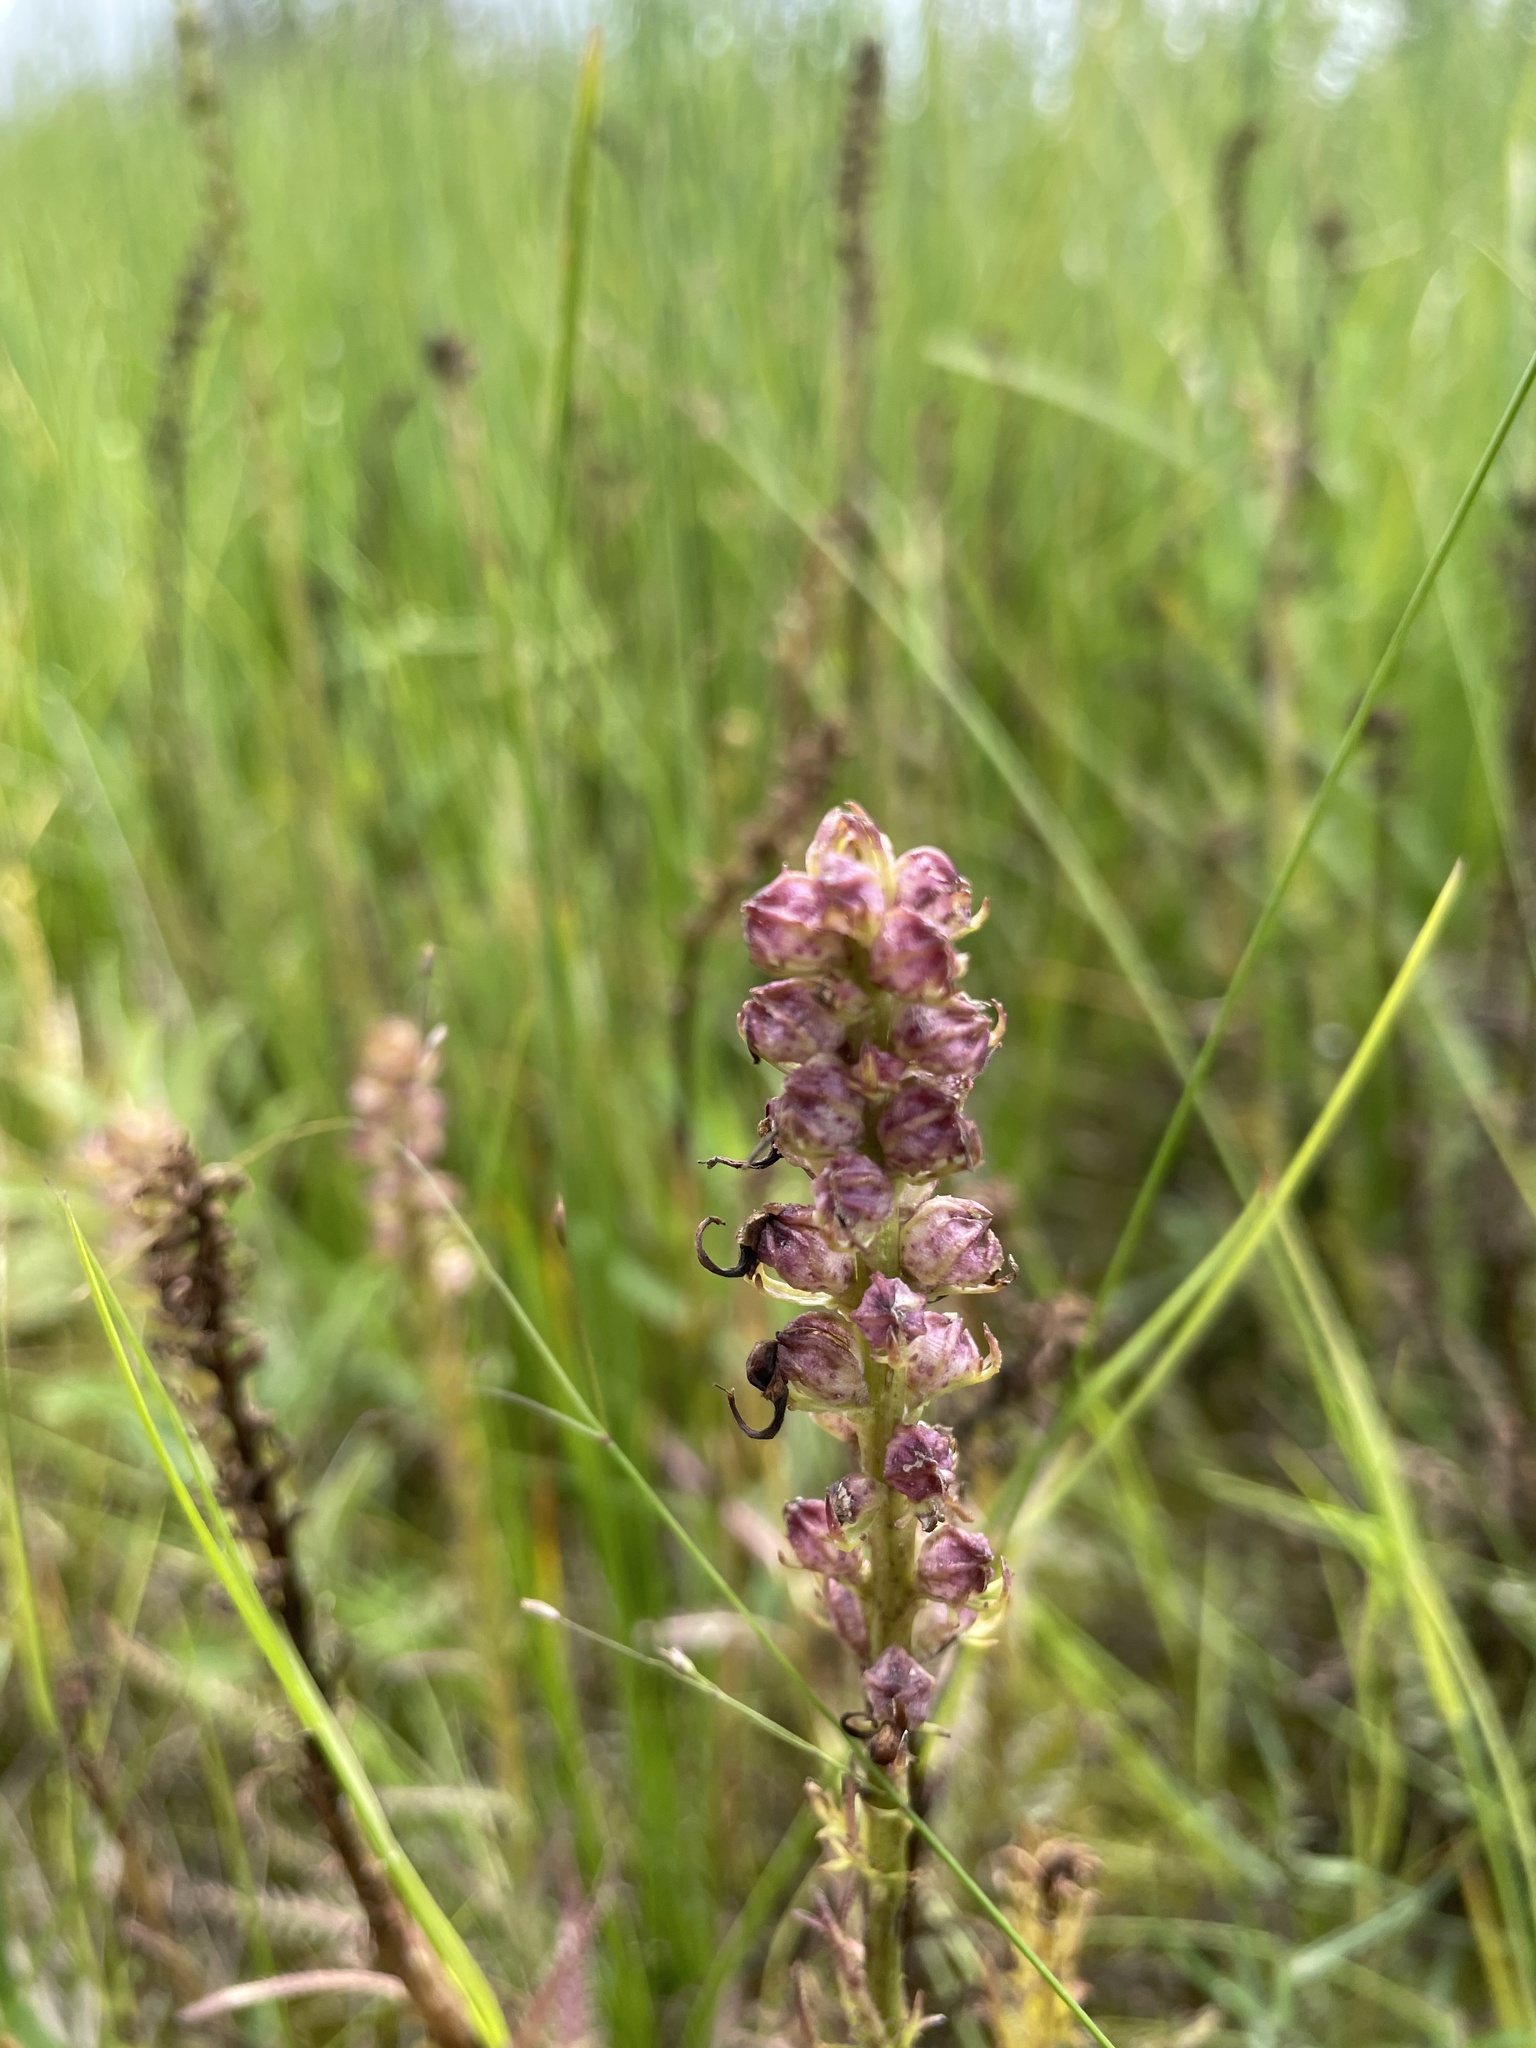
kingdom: Plantae
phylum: Tracheophyta
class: Magnoliopsida
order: Lamiales
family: Orobanchaceae
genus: Pedicularis
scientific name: Pedicularis groenlandica
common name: Elephant's-head
